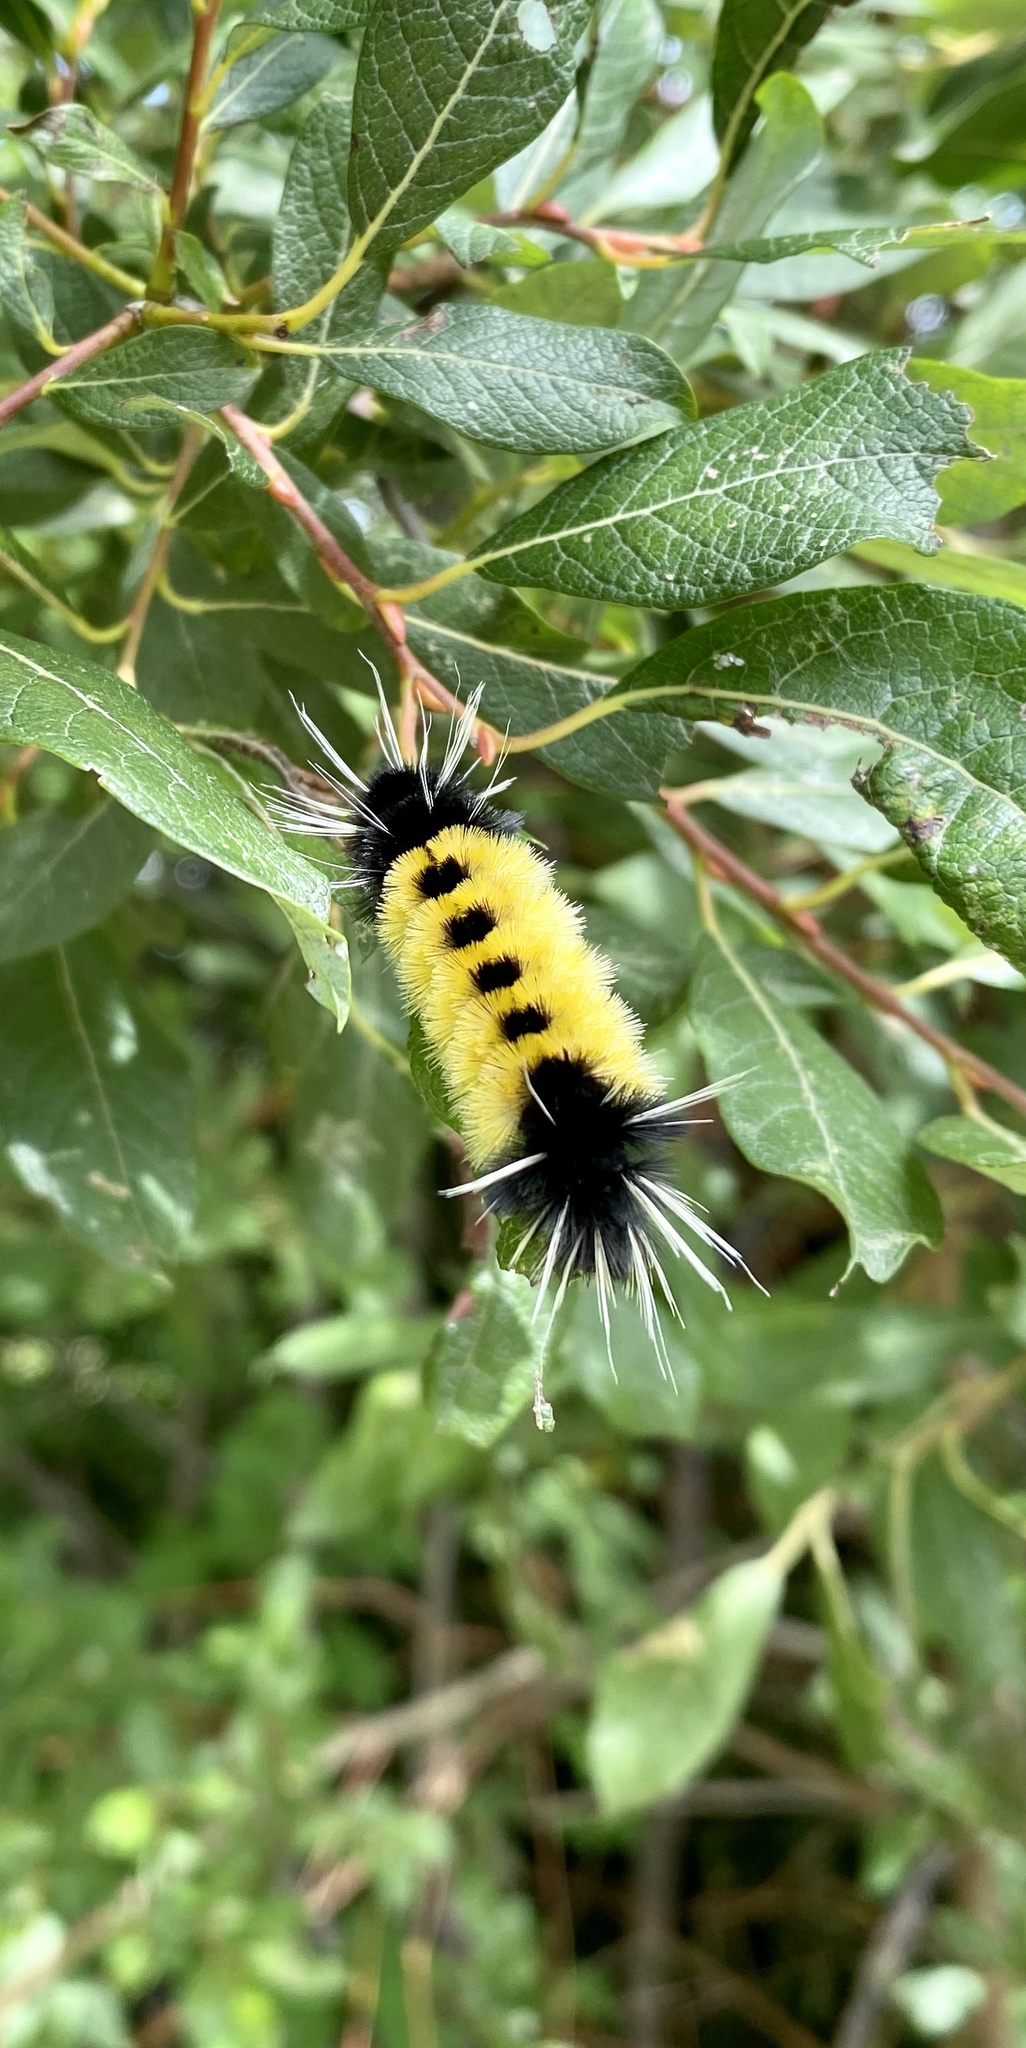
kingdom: Animalia
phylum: Arthropoda
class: Insecta
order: Lepidoptera
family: Erebidae
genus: Lophocampa
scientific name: Lophocampa maculata
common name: Spotted tussock moth
